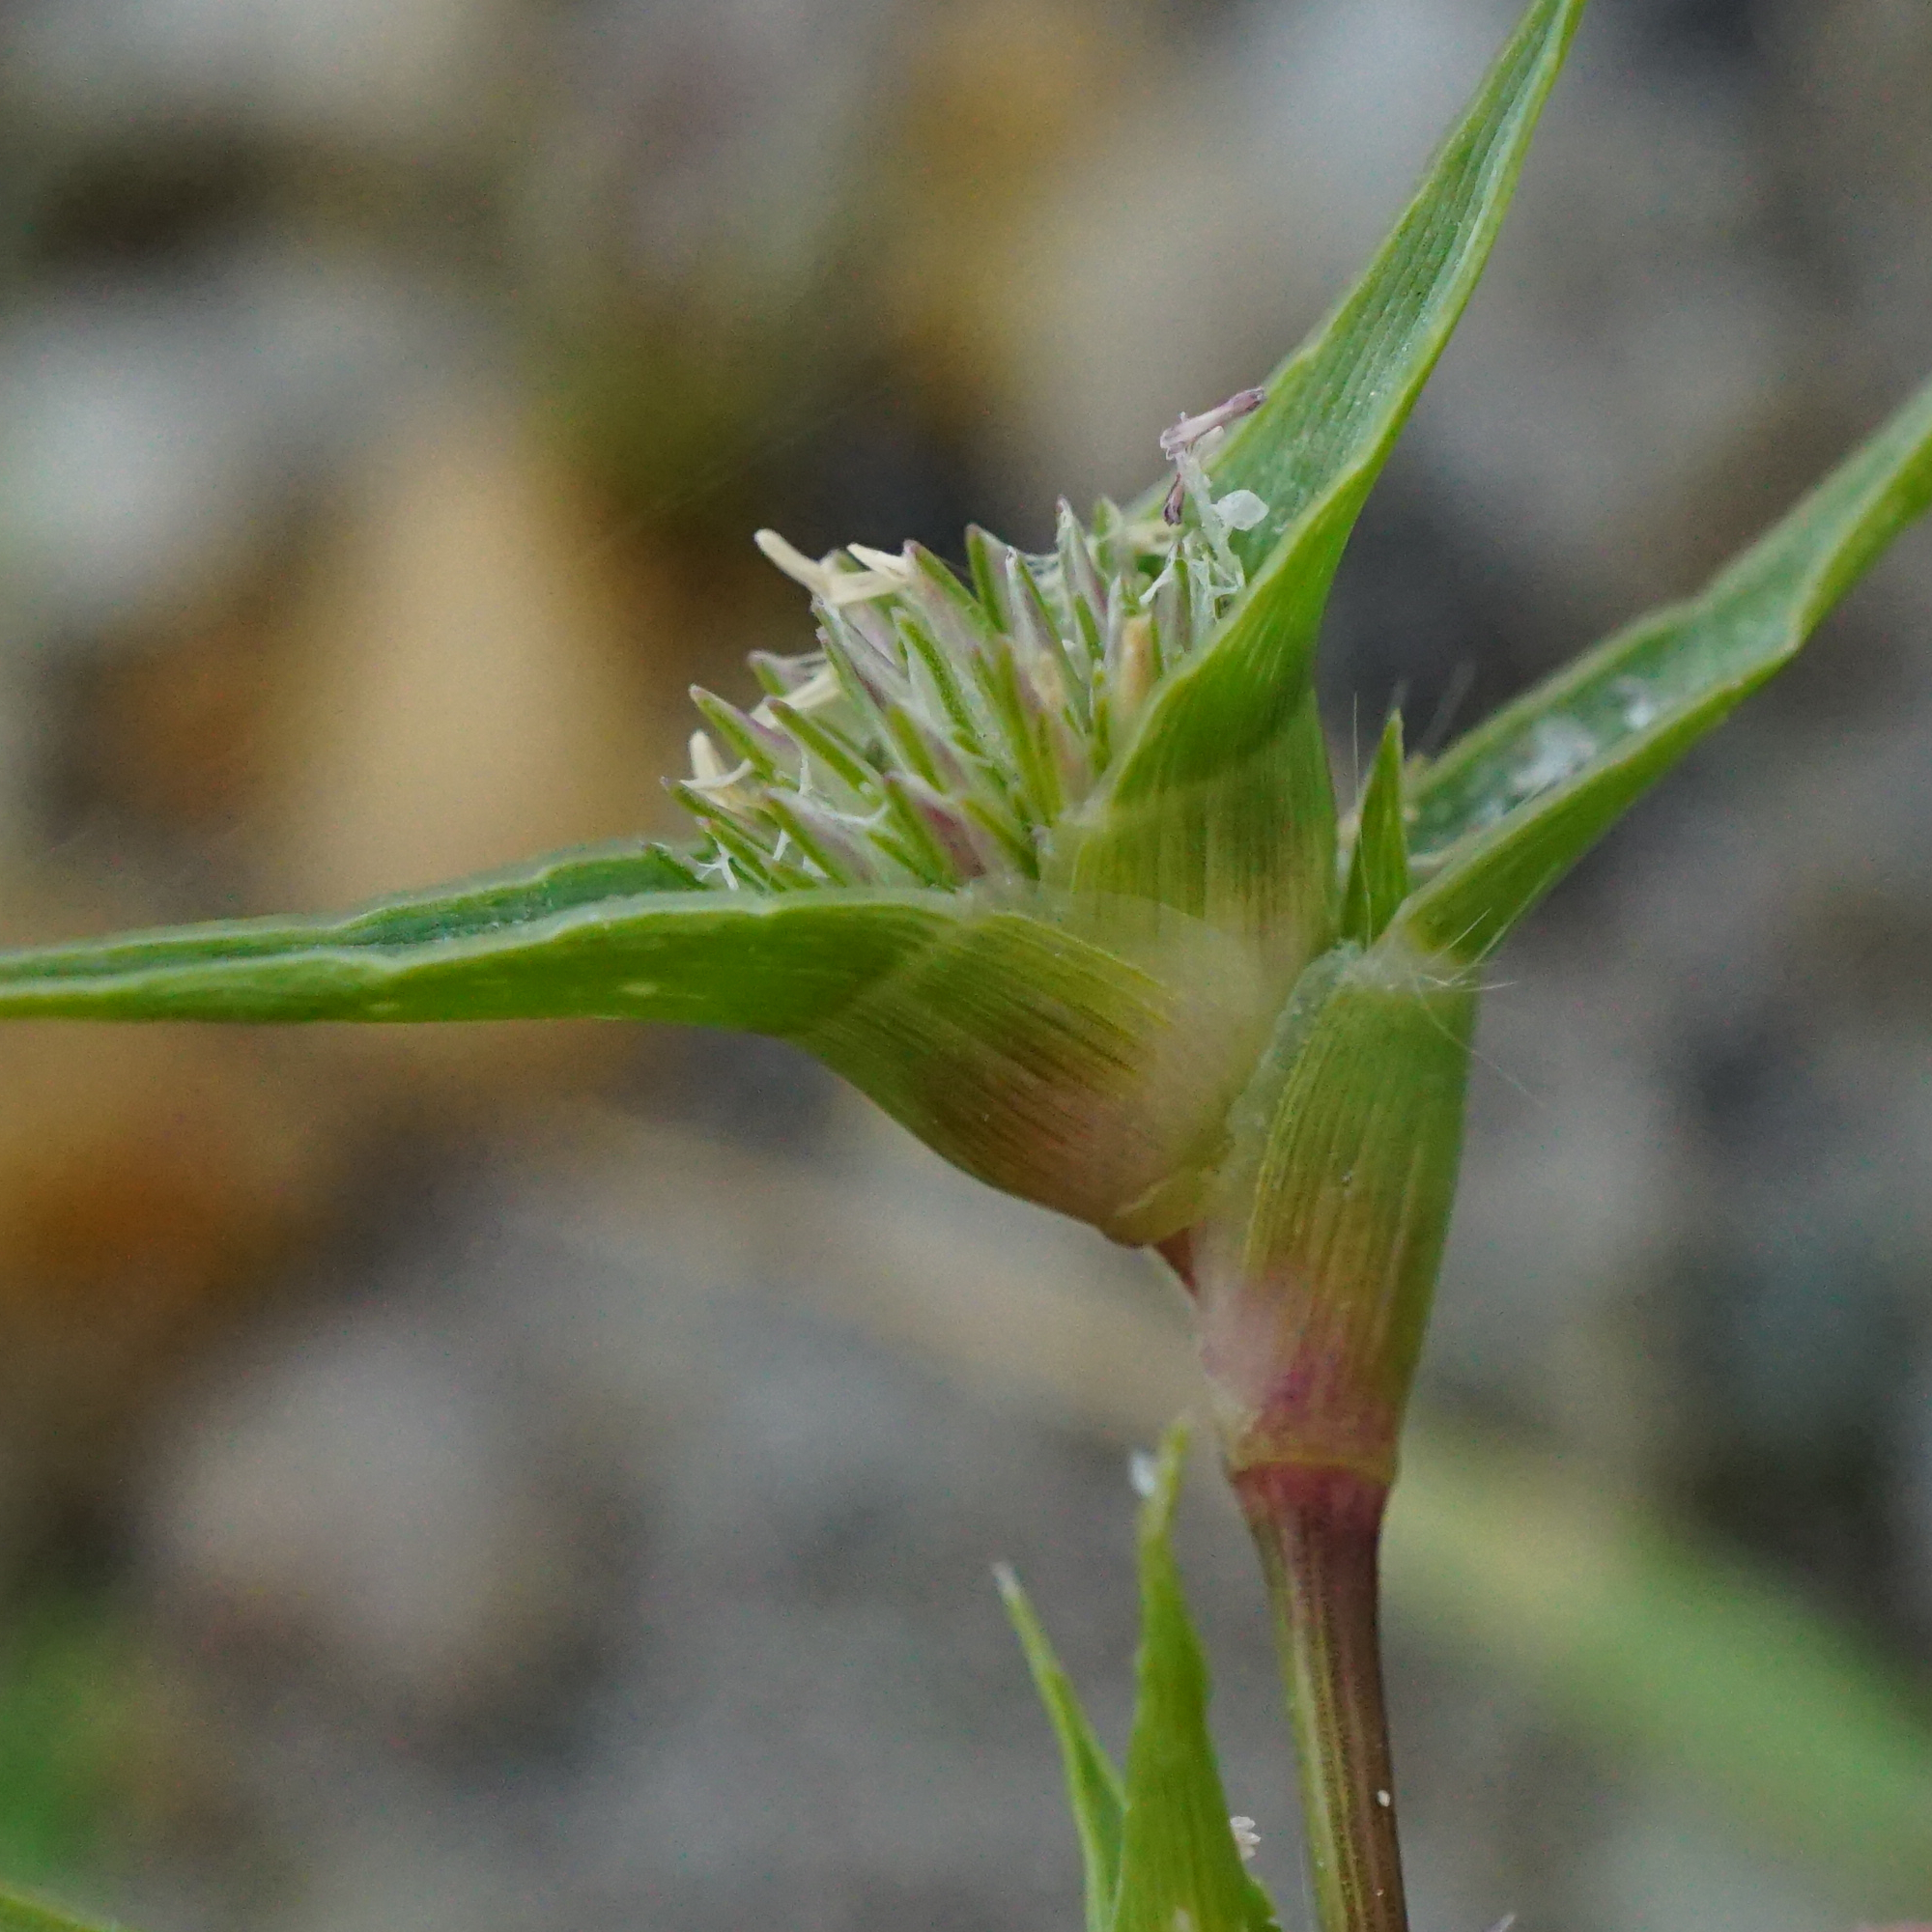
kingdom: Plantae
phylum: Tracheophyta
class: Liliopsida
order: Poales
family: Poaceae
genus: Sporobolus
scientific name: Sporobolus aculeatus
